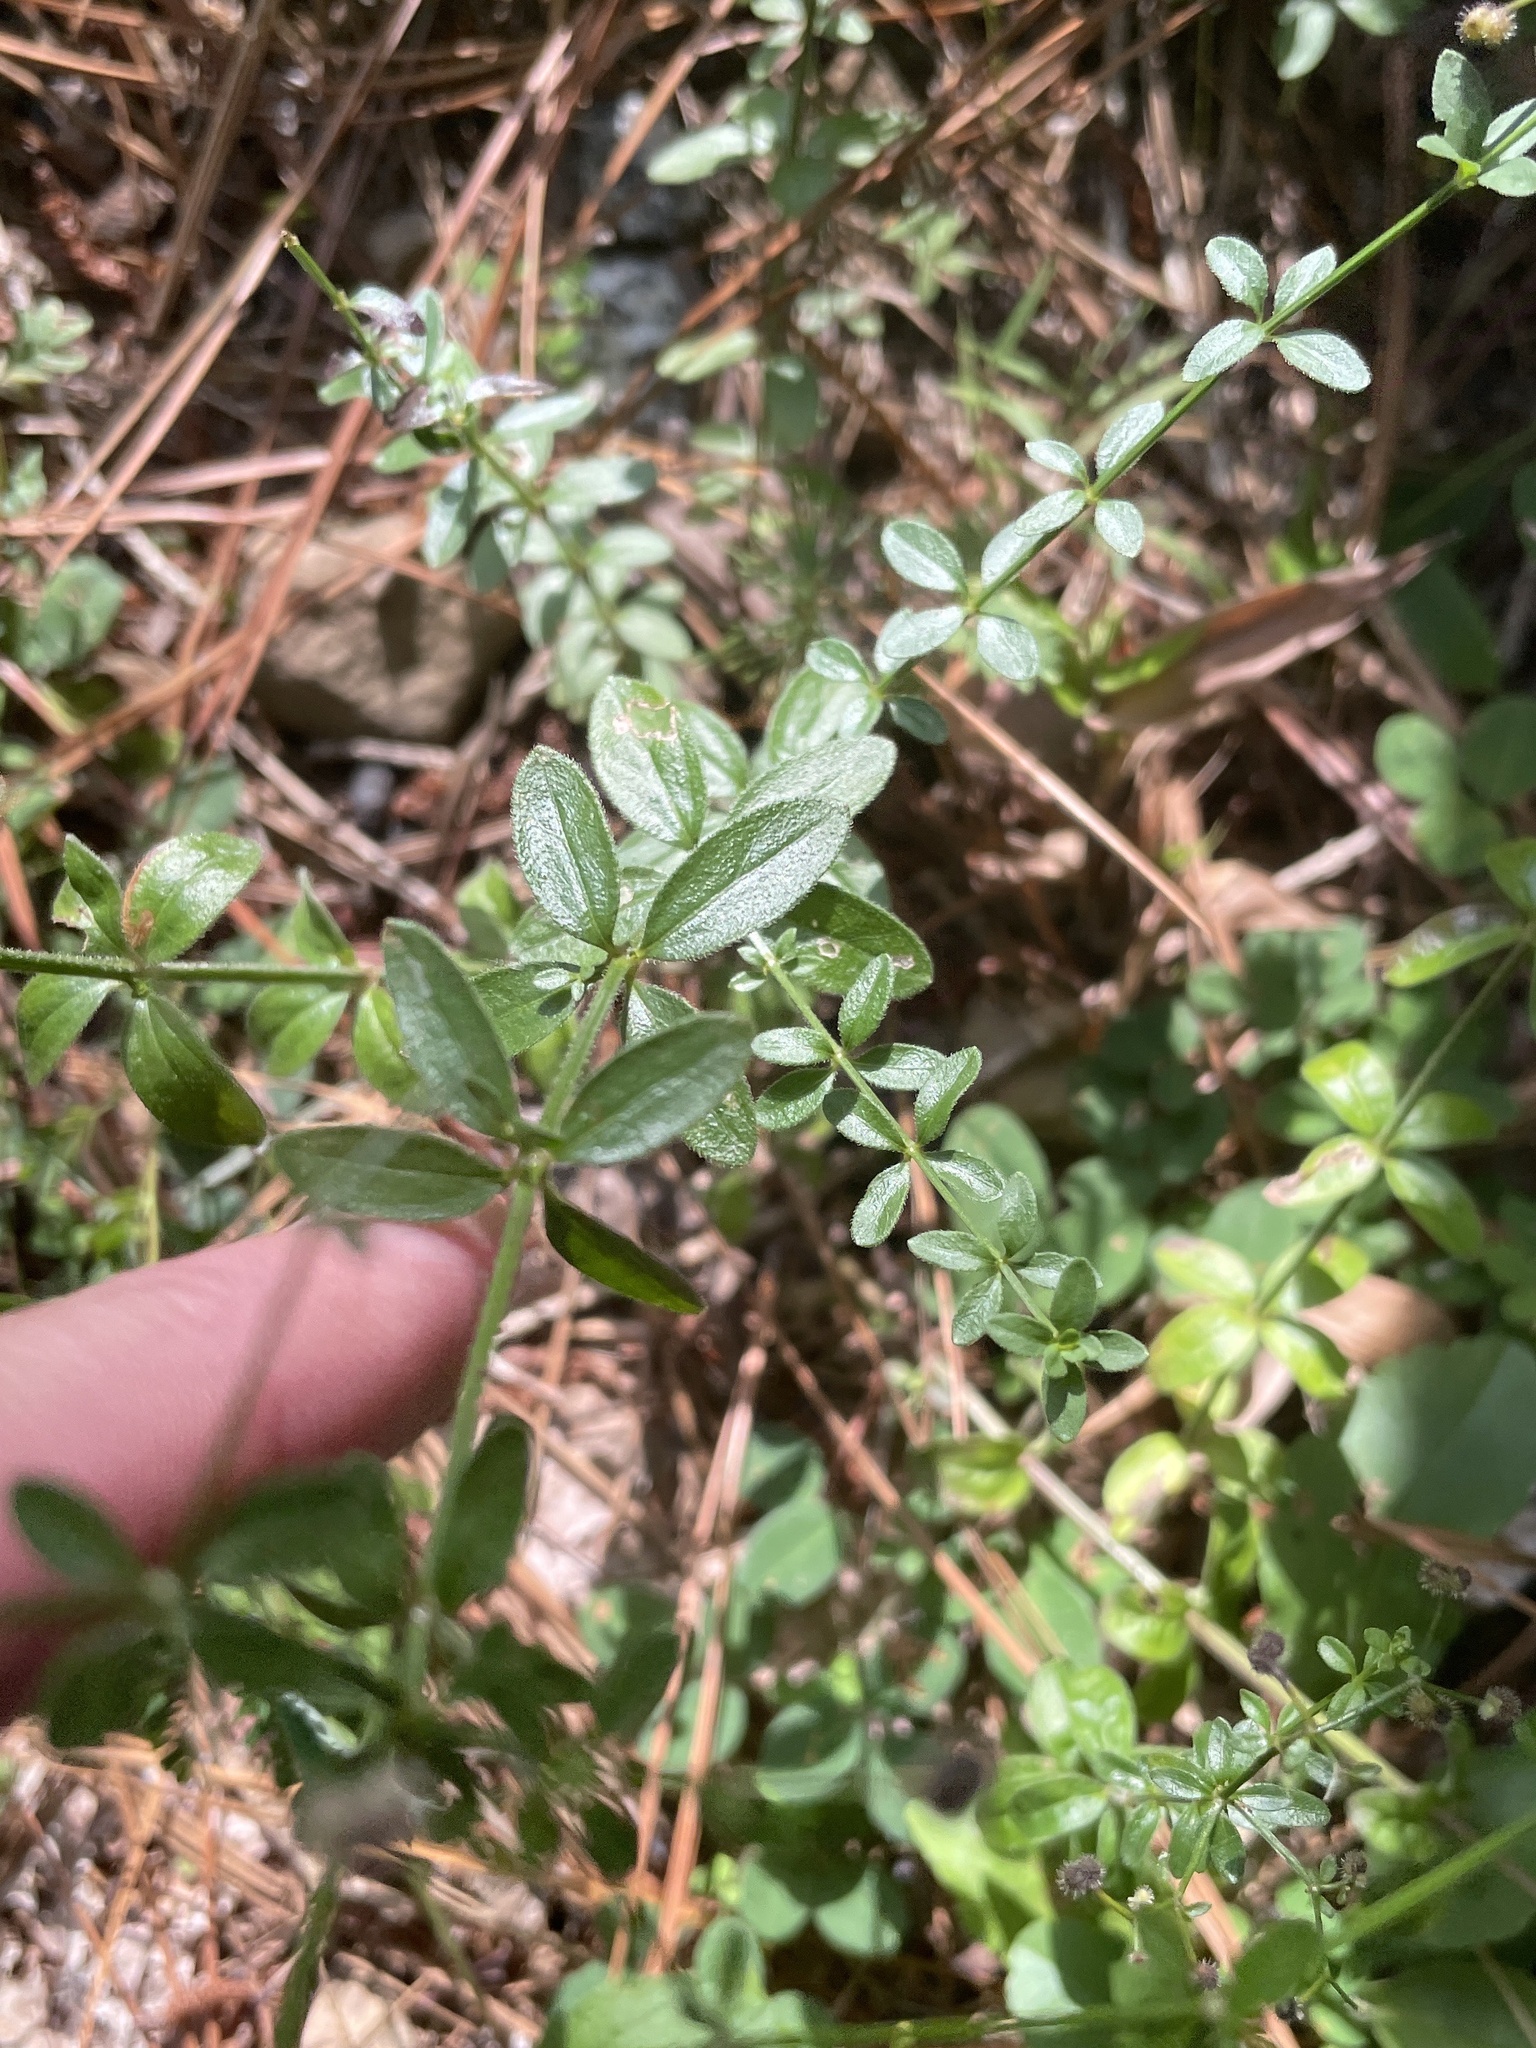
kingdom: Plantae
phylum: Tracheophyta
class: Magnoliopsida
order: Gentianales
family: Rubiaceae
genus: Galium
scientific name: Galium pilosum
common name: Hairy bedstraw
